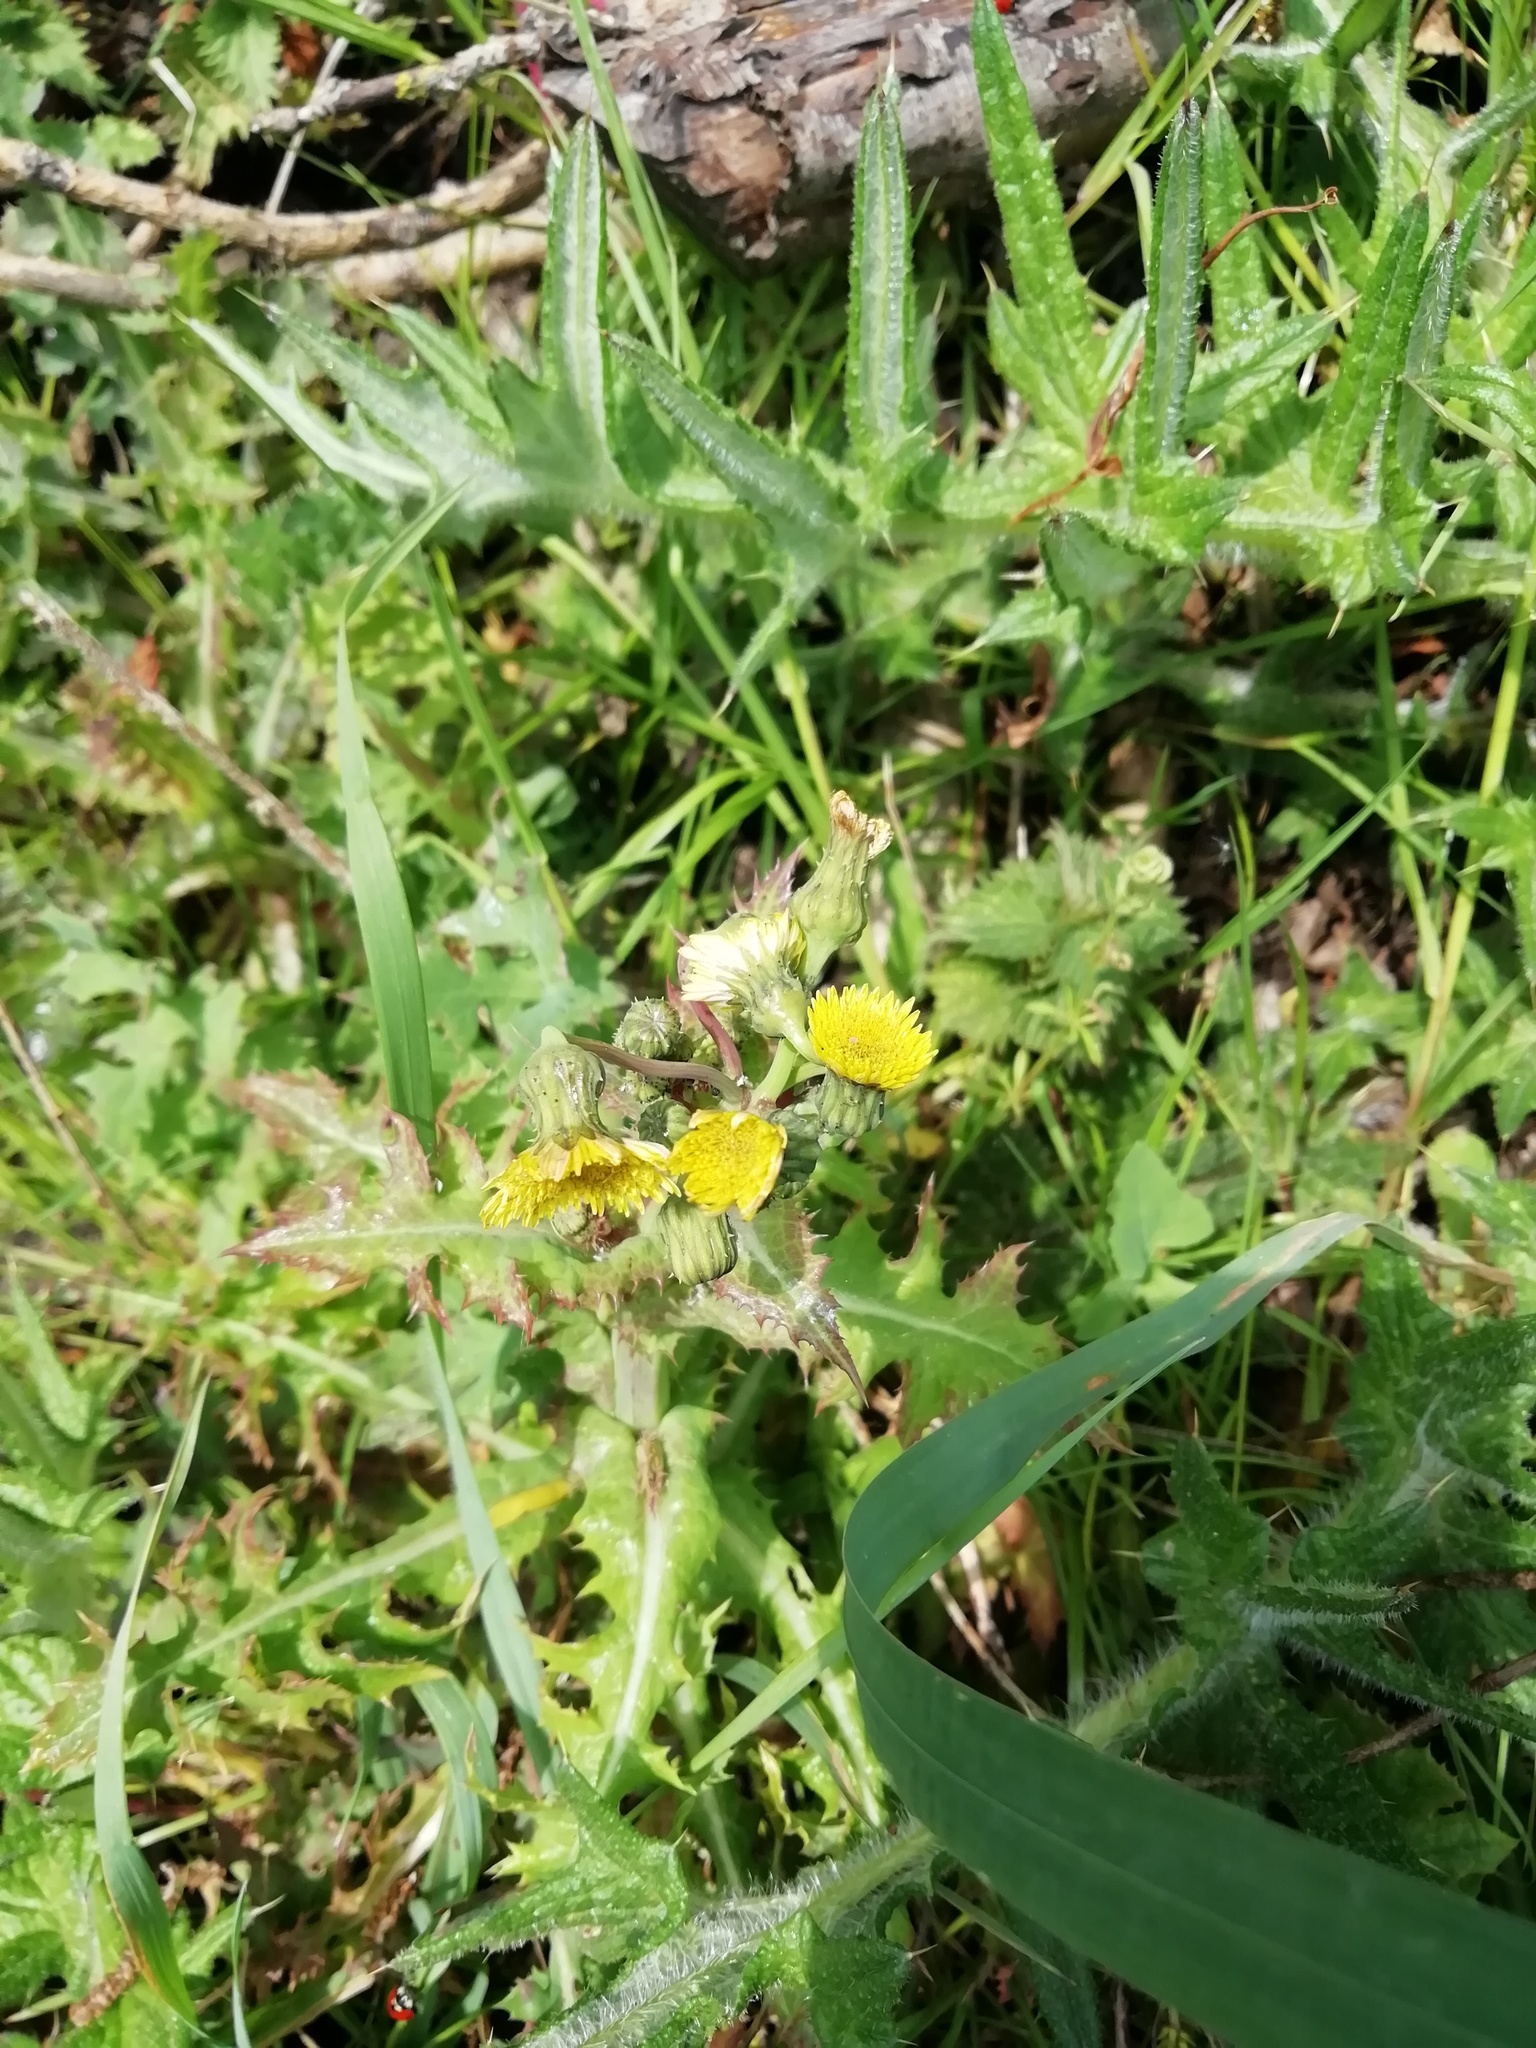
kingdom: Plantae
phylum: Tracheophyta
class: Magnoliopsida
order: Asterales
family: Asteraceae
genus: Sonchus
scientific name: Sonchus asper
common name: Prickly sow-thistle
